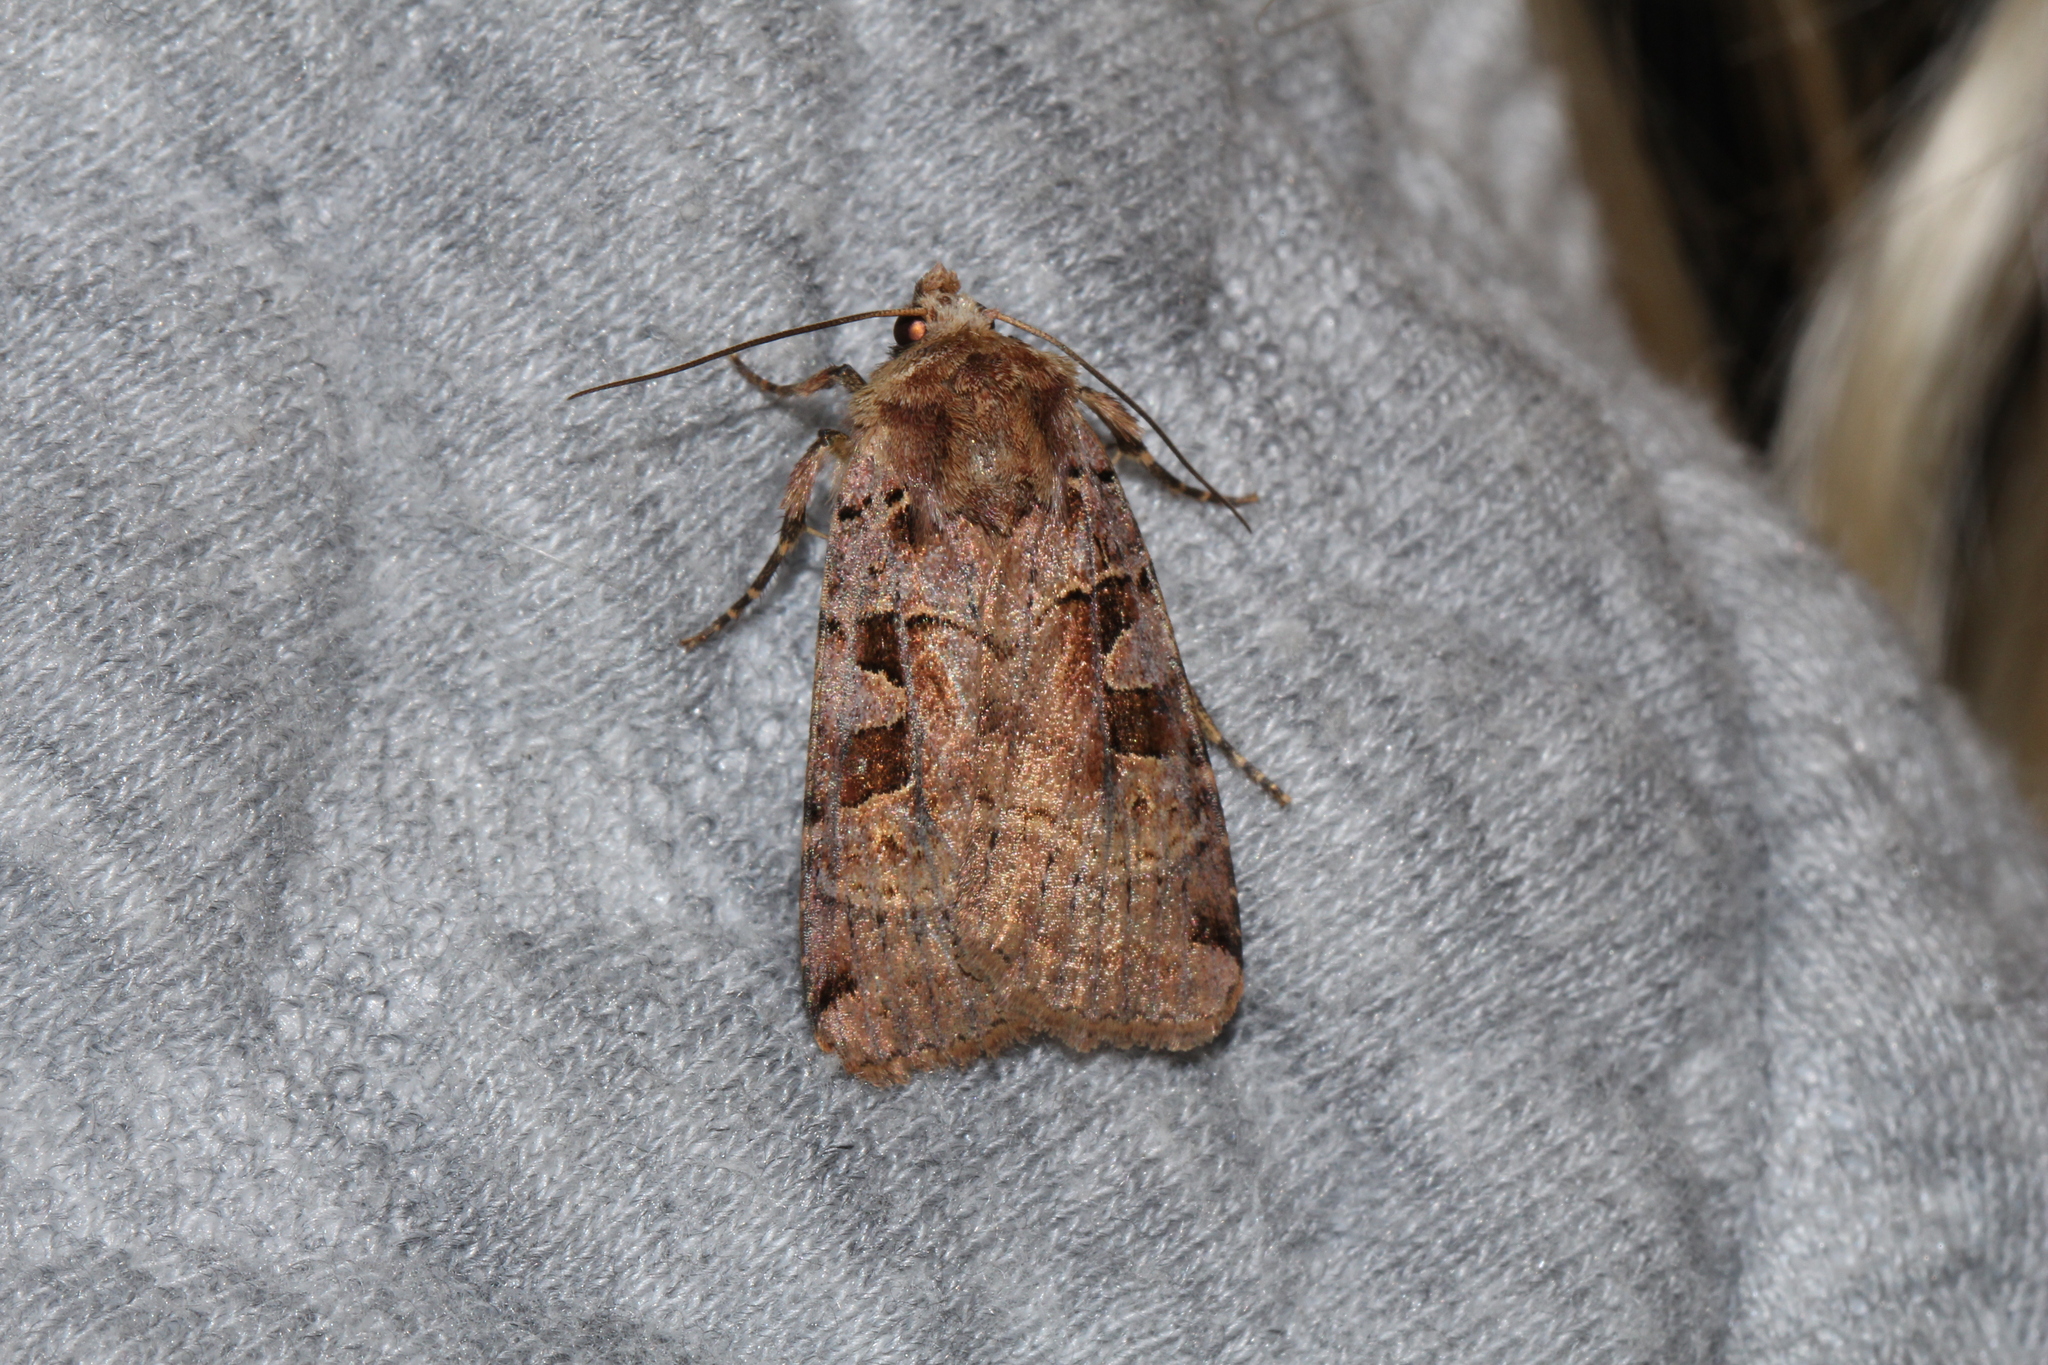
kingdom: Animalia
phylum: Arthropoda
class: Insecta
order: Lepidoptera
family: Noctuidae
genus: Xestia
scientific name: Xestia triangulum
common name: Double square-spot
